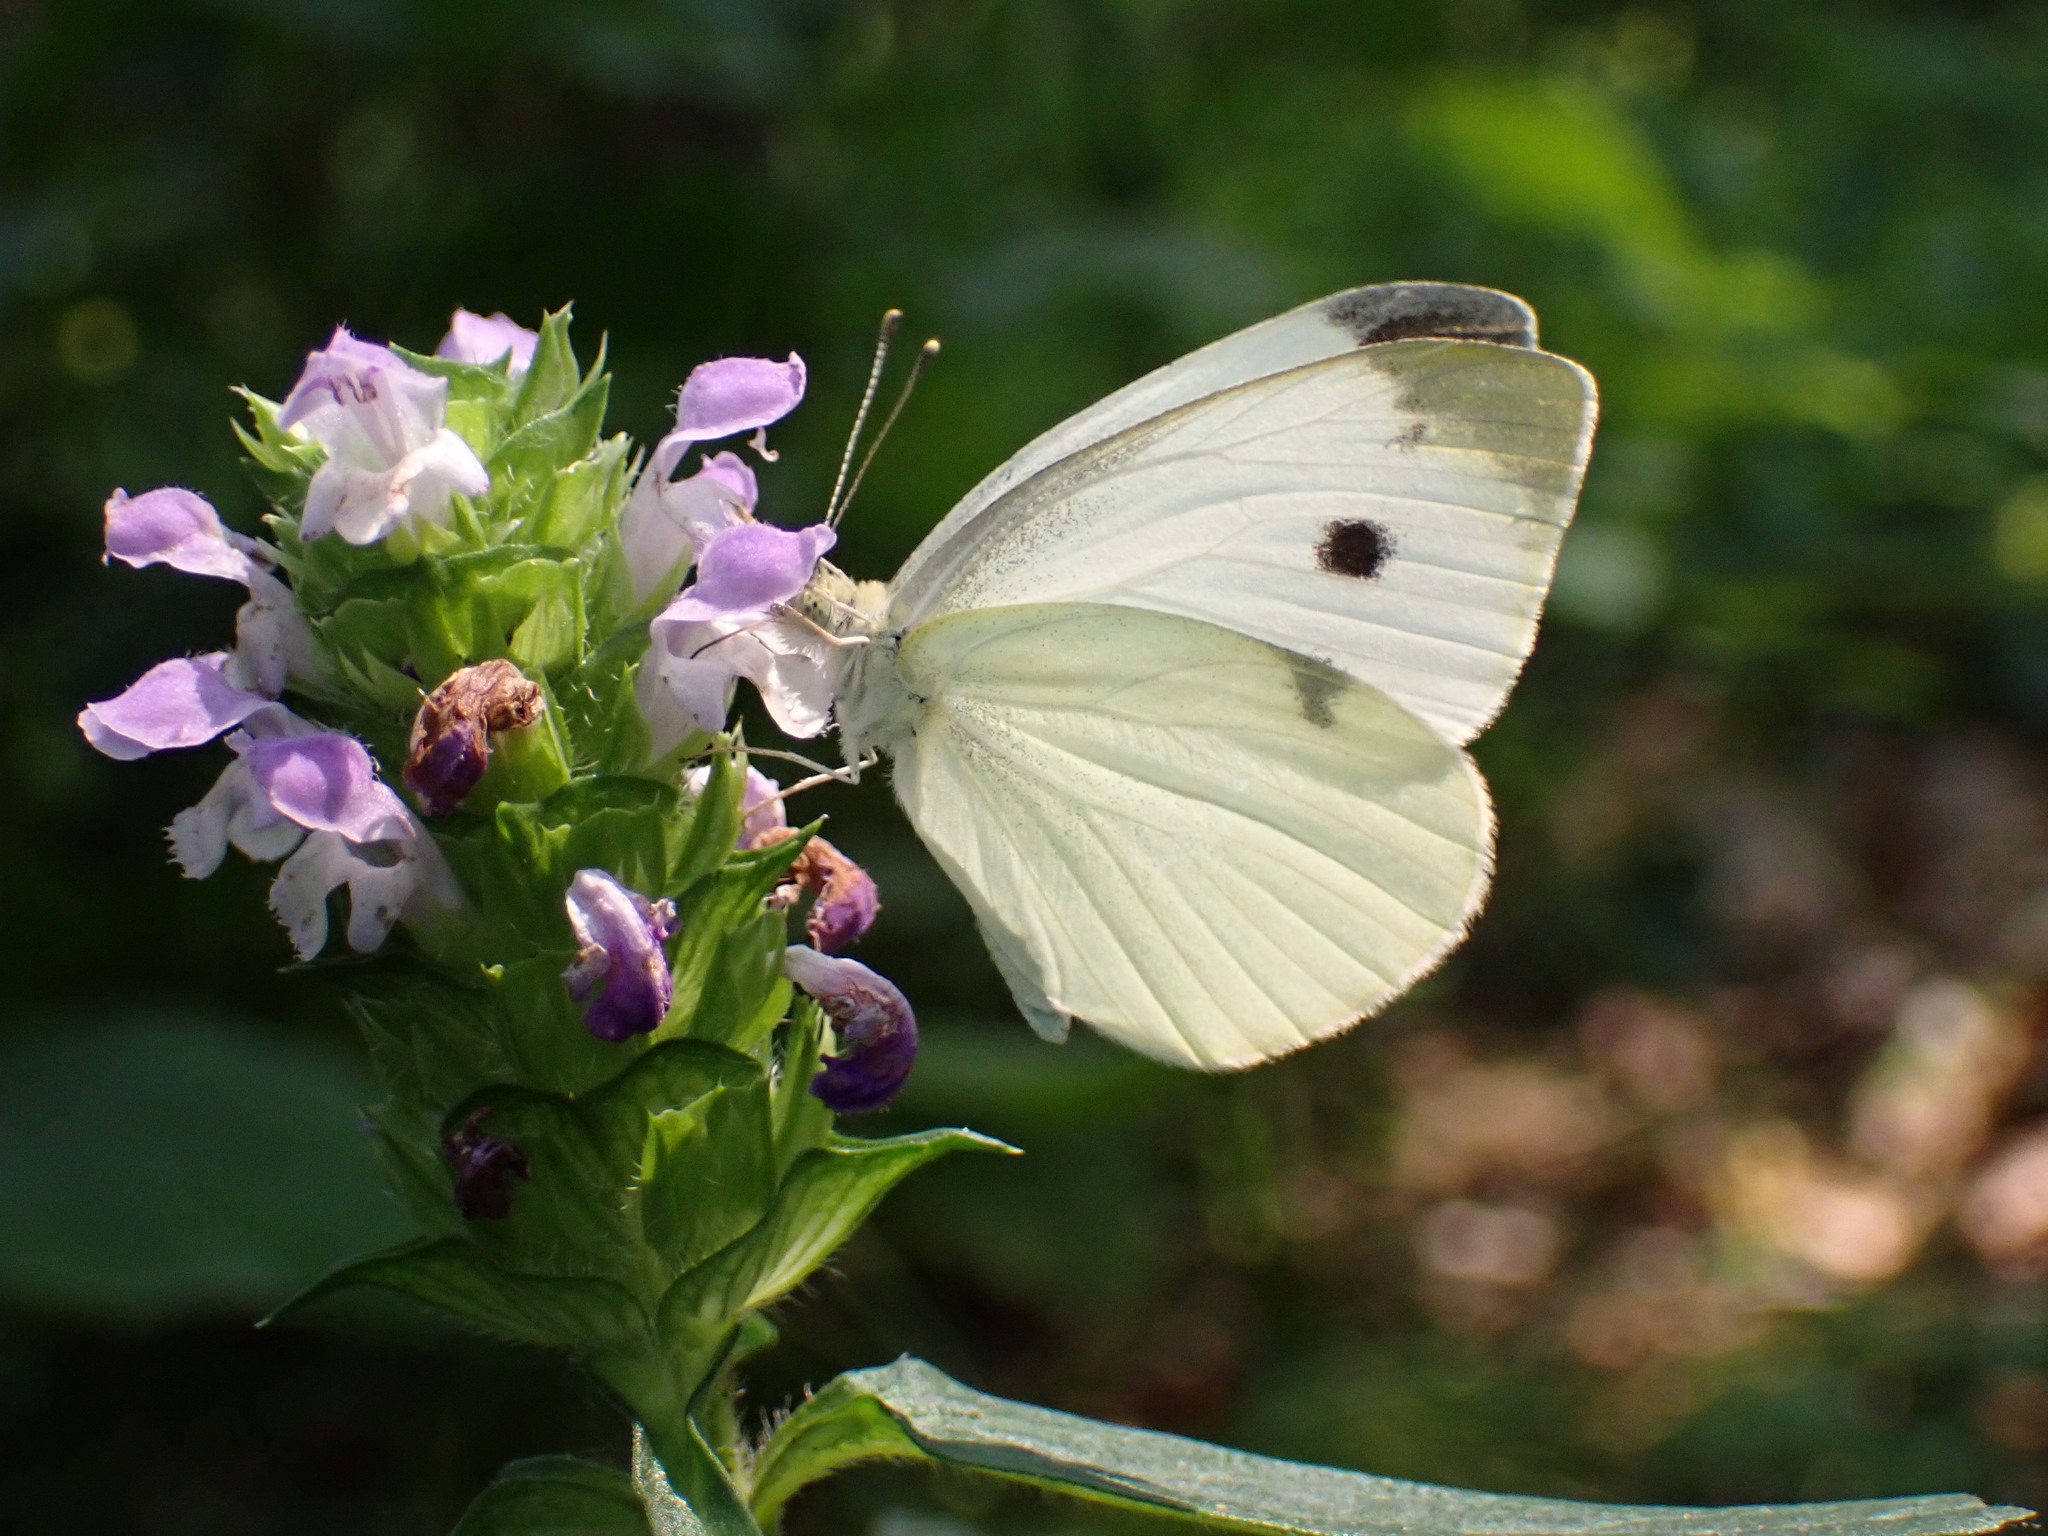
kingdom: Animalia
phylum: Arthropoda
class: Insecta
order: Lepidoptera
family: Pieridae
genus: Pieris
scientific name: Pieris rapae
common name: Small white
